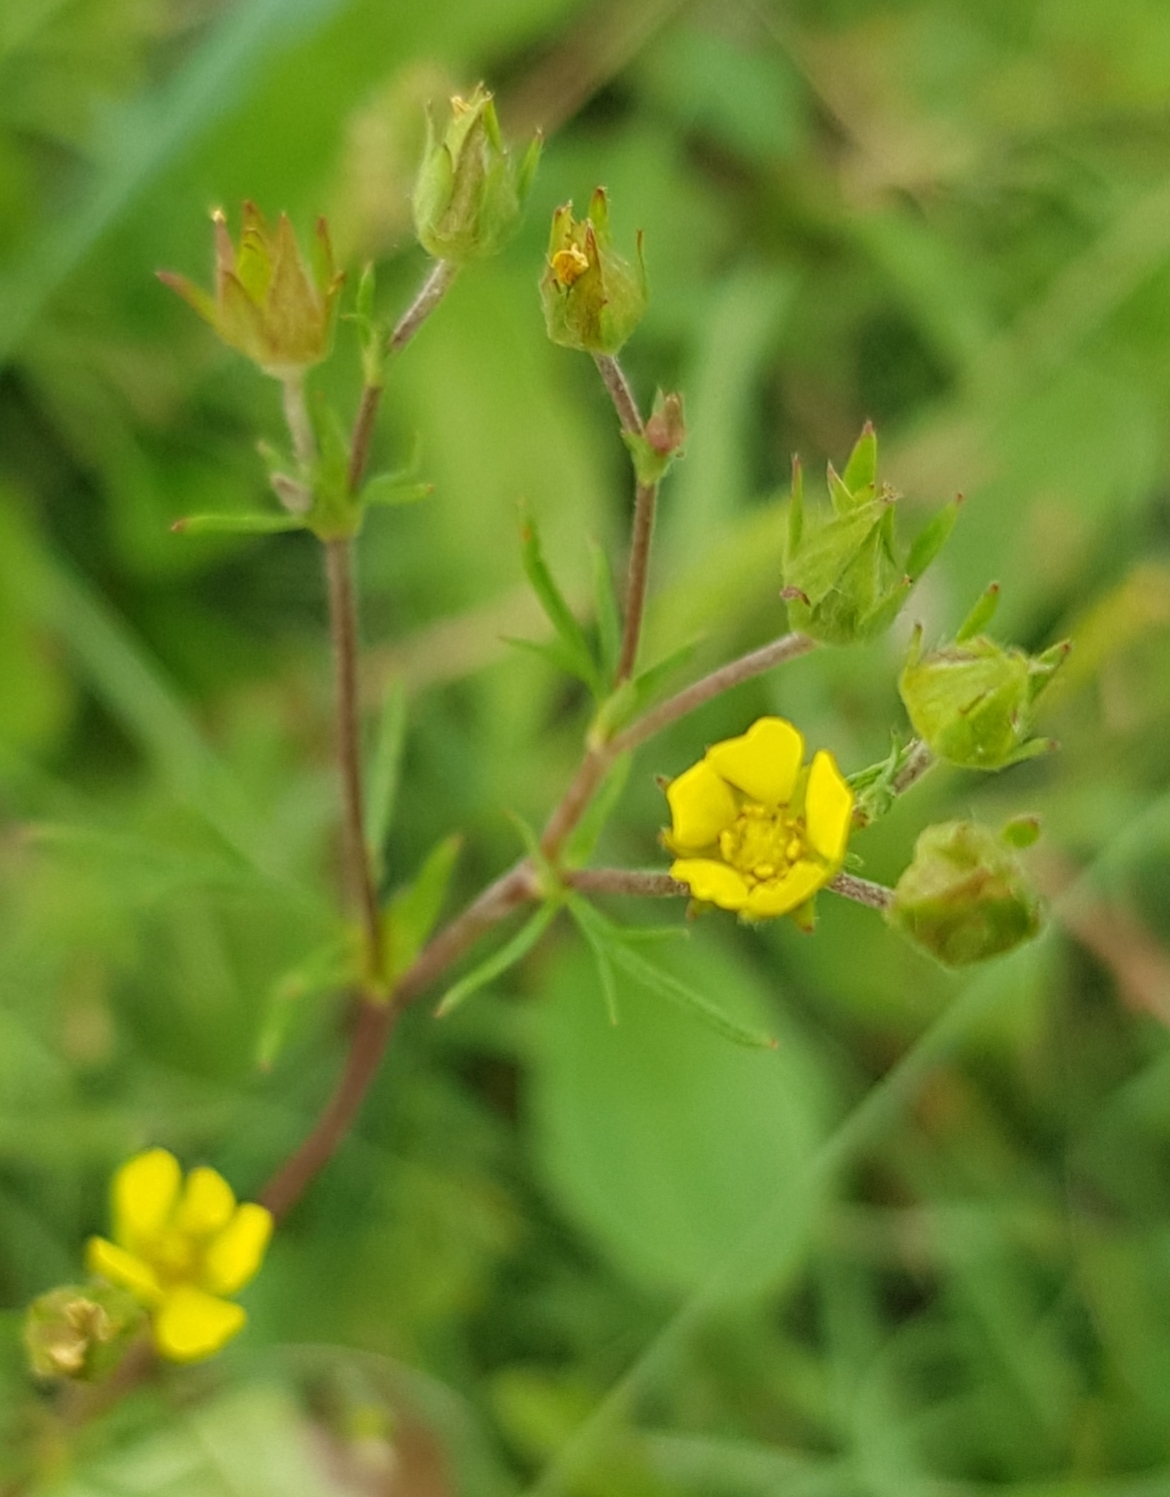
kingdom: Plantae
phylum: Tracheophyta
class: Magnoliopsida
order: Rosales
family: Rosaceae
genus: Potentilla
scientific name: Potentilla supina
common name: Prostrate cinquefoil
